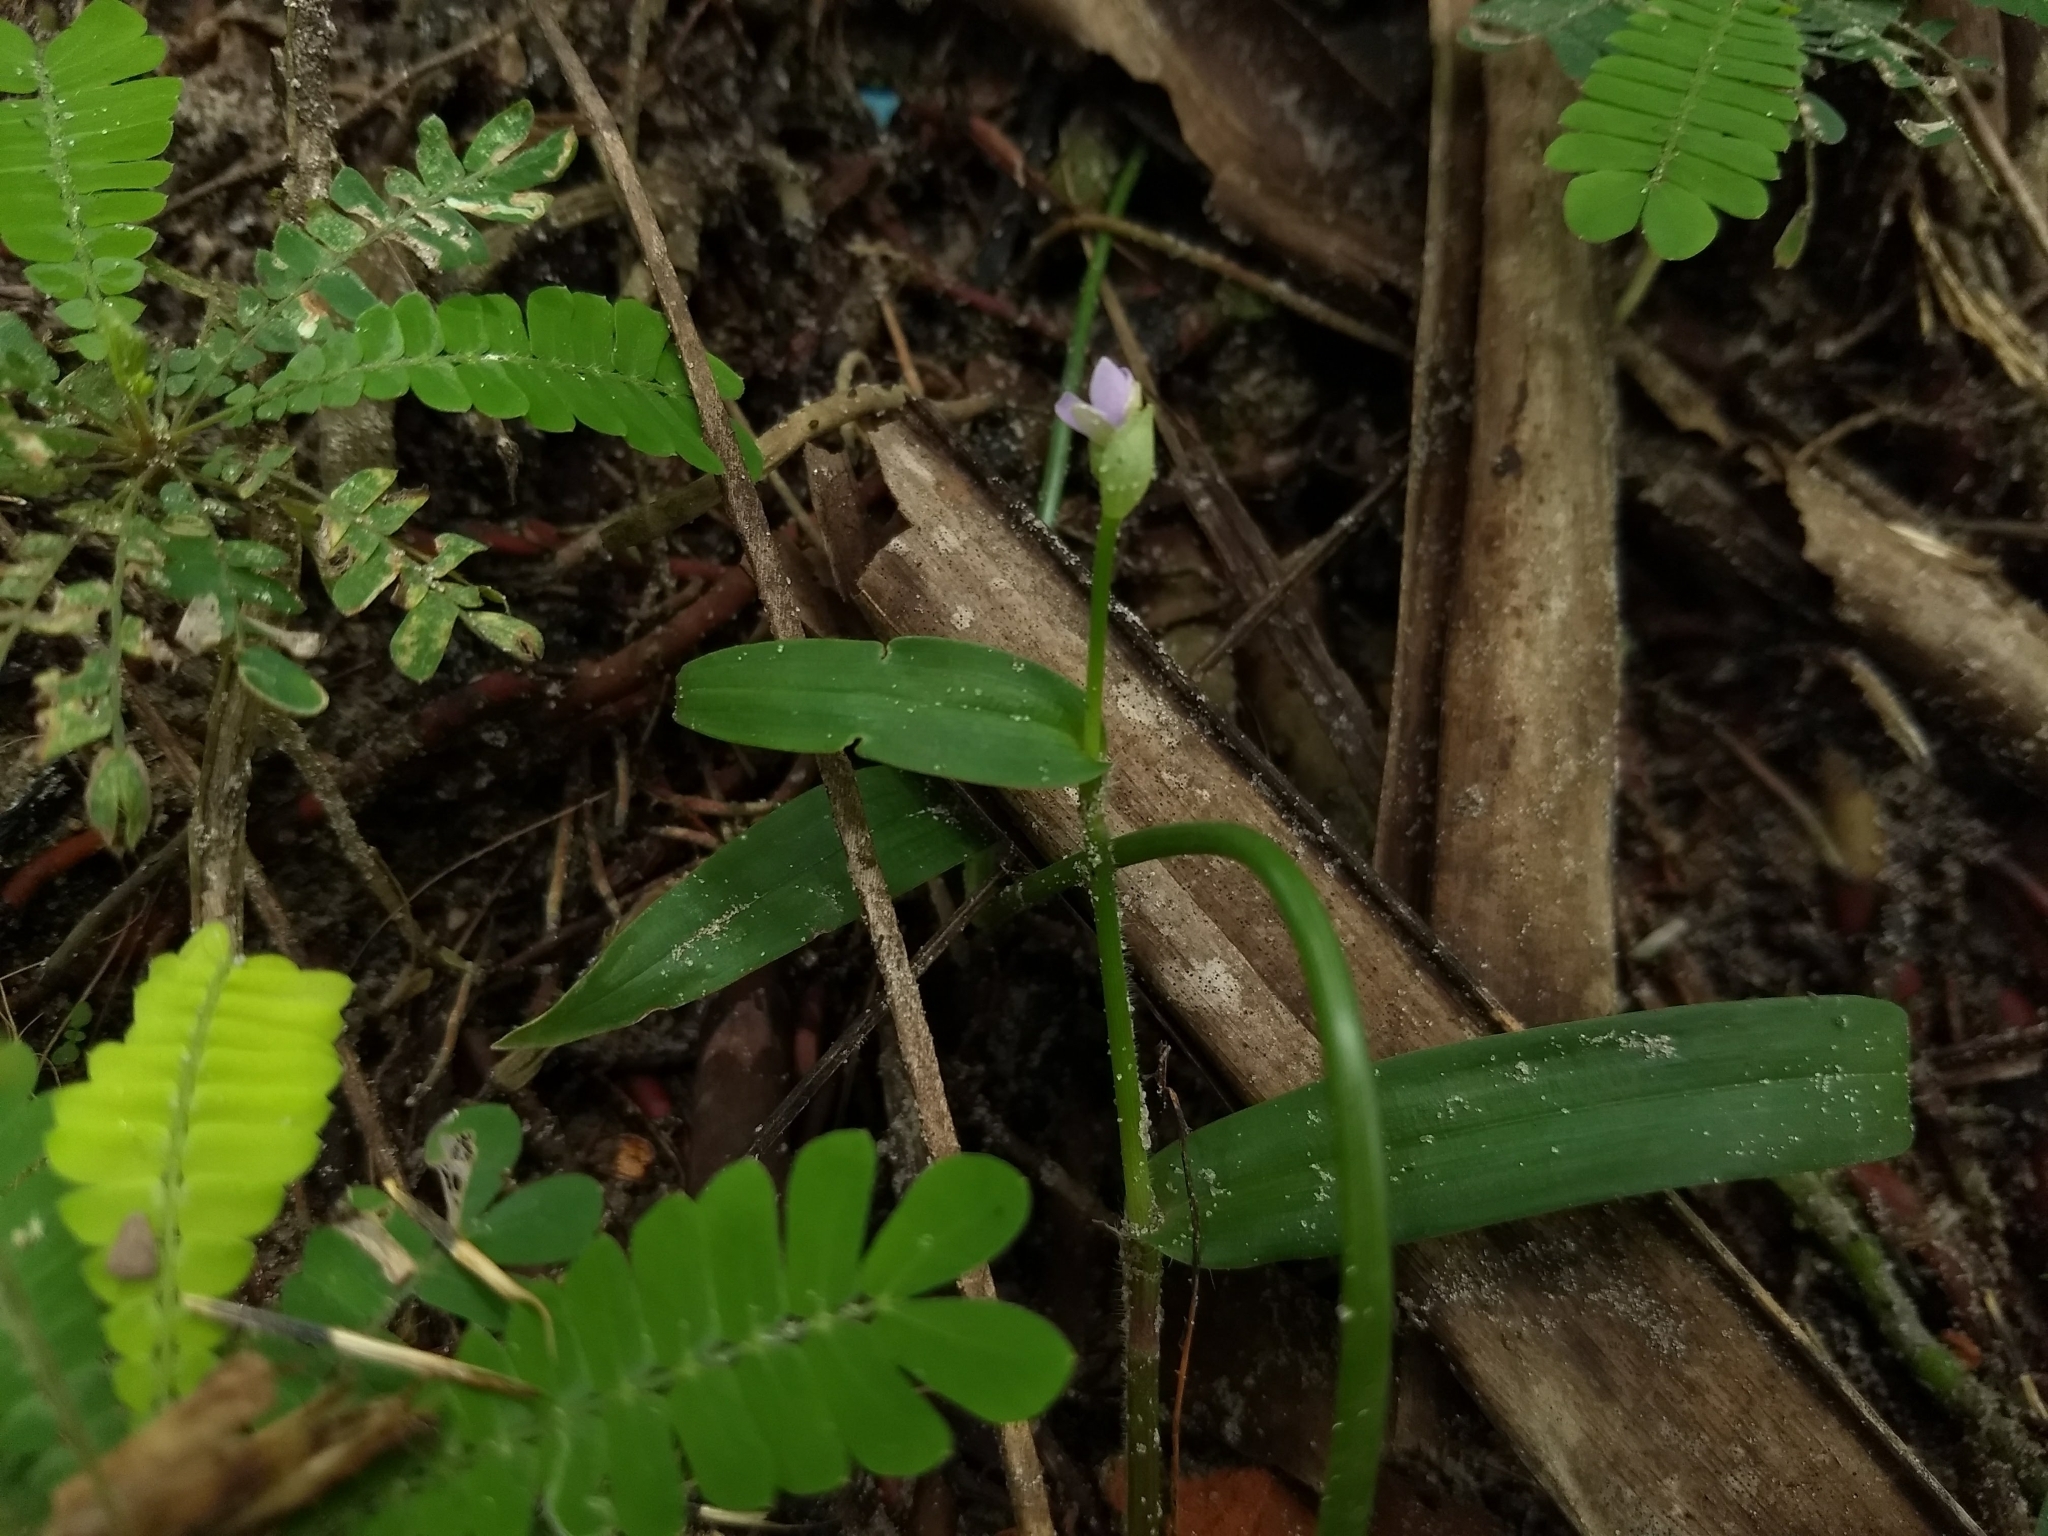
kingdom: Plantae
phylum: Tracheophyta
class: Liliopsida
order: Commelinales
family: Commelinaceae
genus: Murdannia
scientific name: Murdannia nudiflora
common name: Nakedstem dewflower
